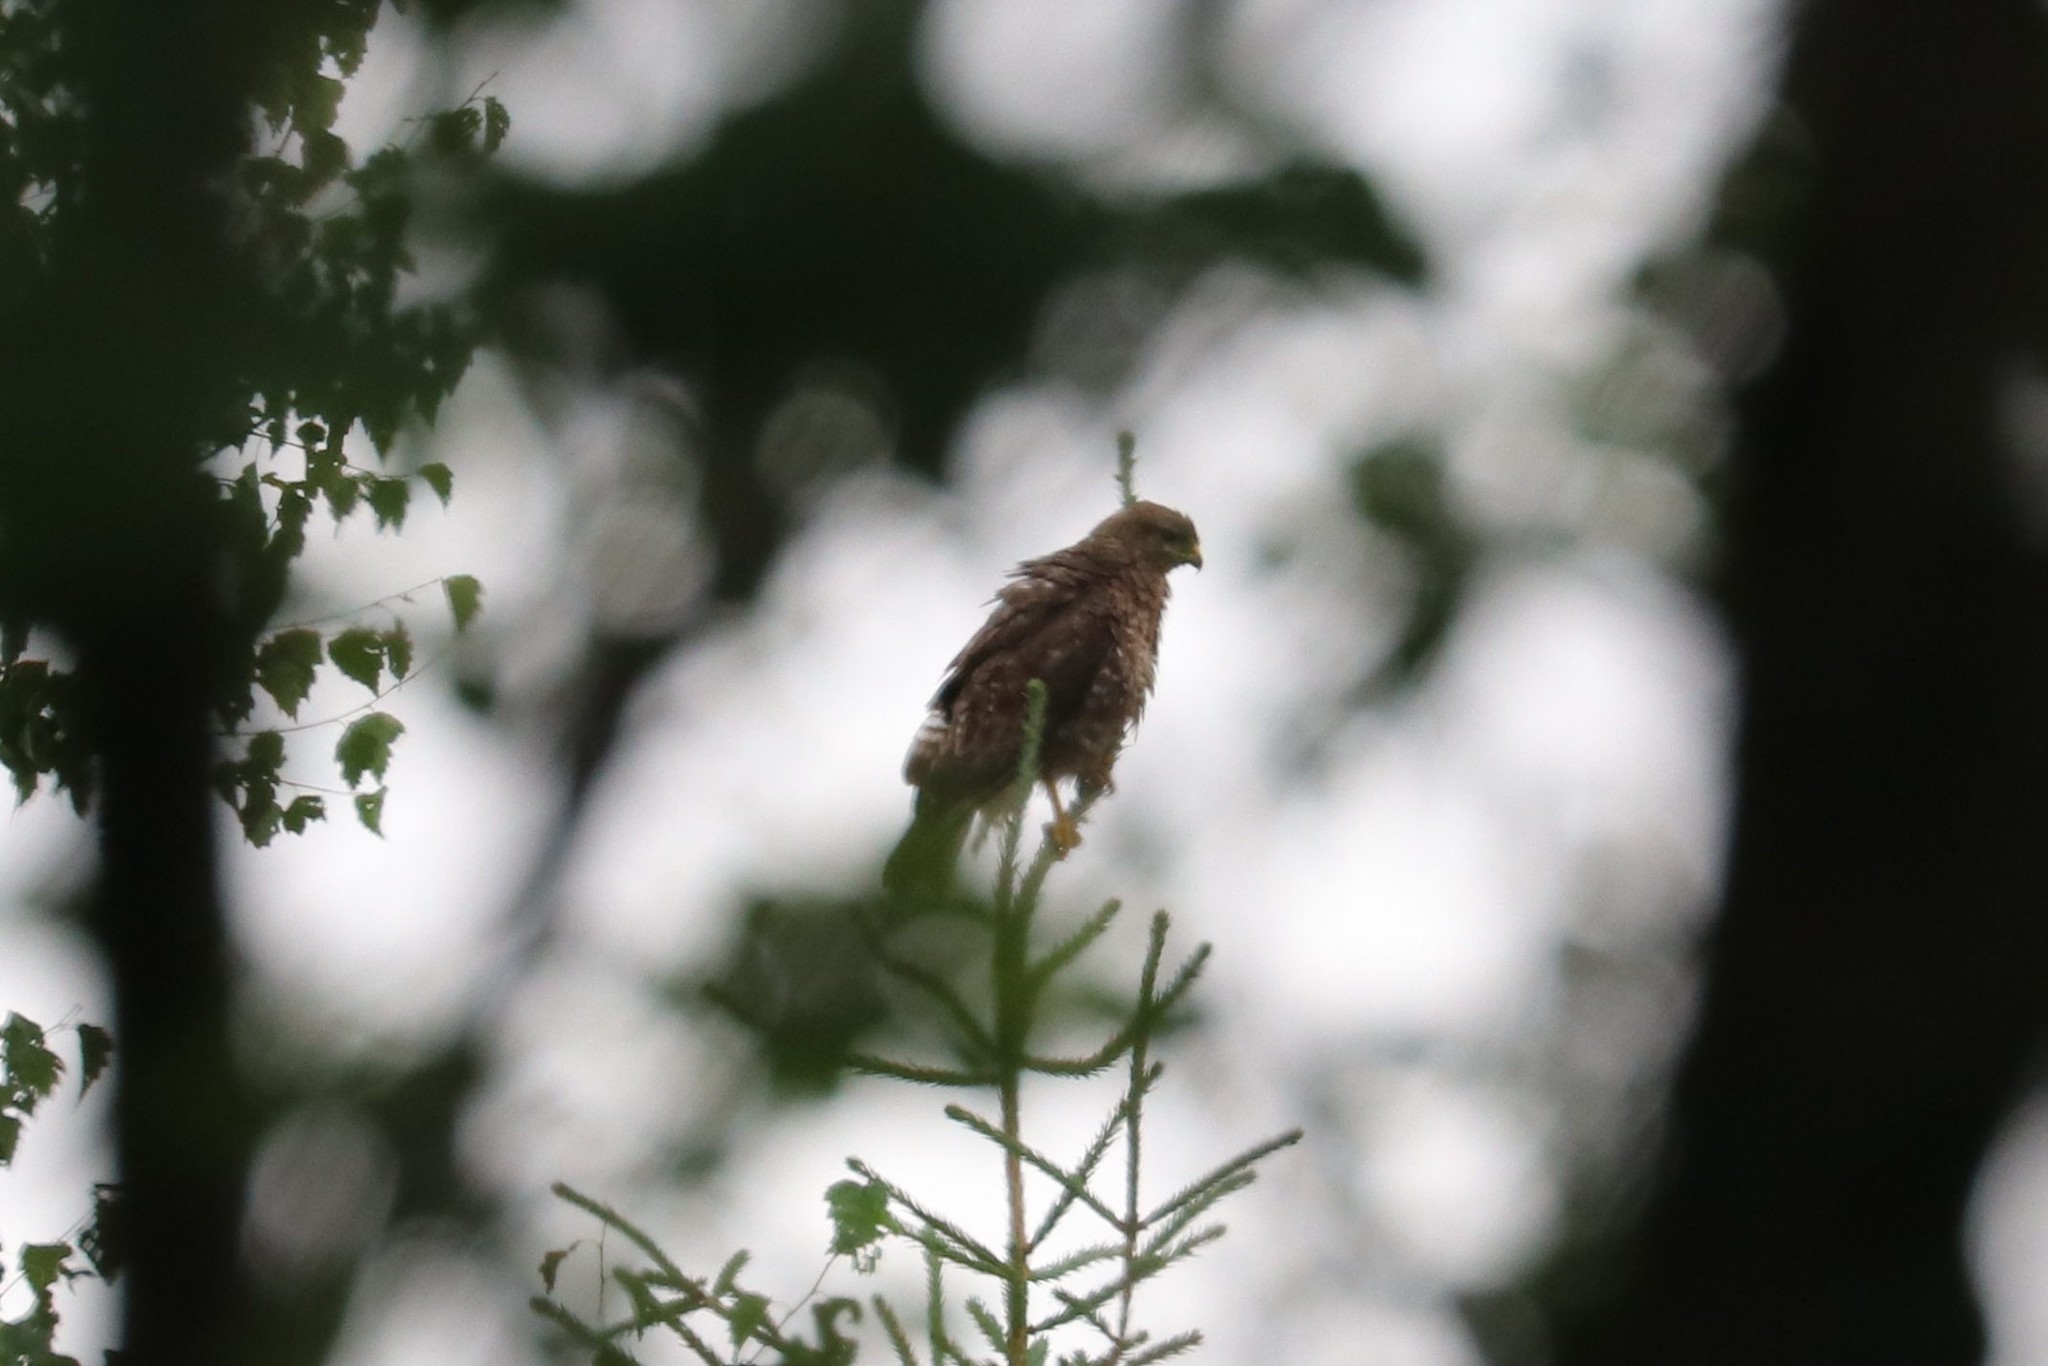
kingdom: Animalia
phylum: Chordata
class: Aves
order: Accipitriformes
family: Accipitridae
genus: Buteo
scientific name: Buteo buteo
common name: Common buzzard
